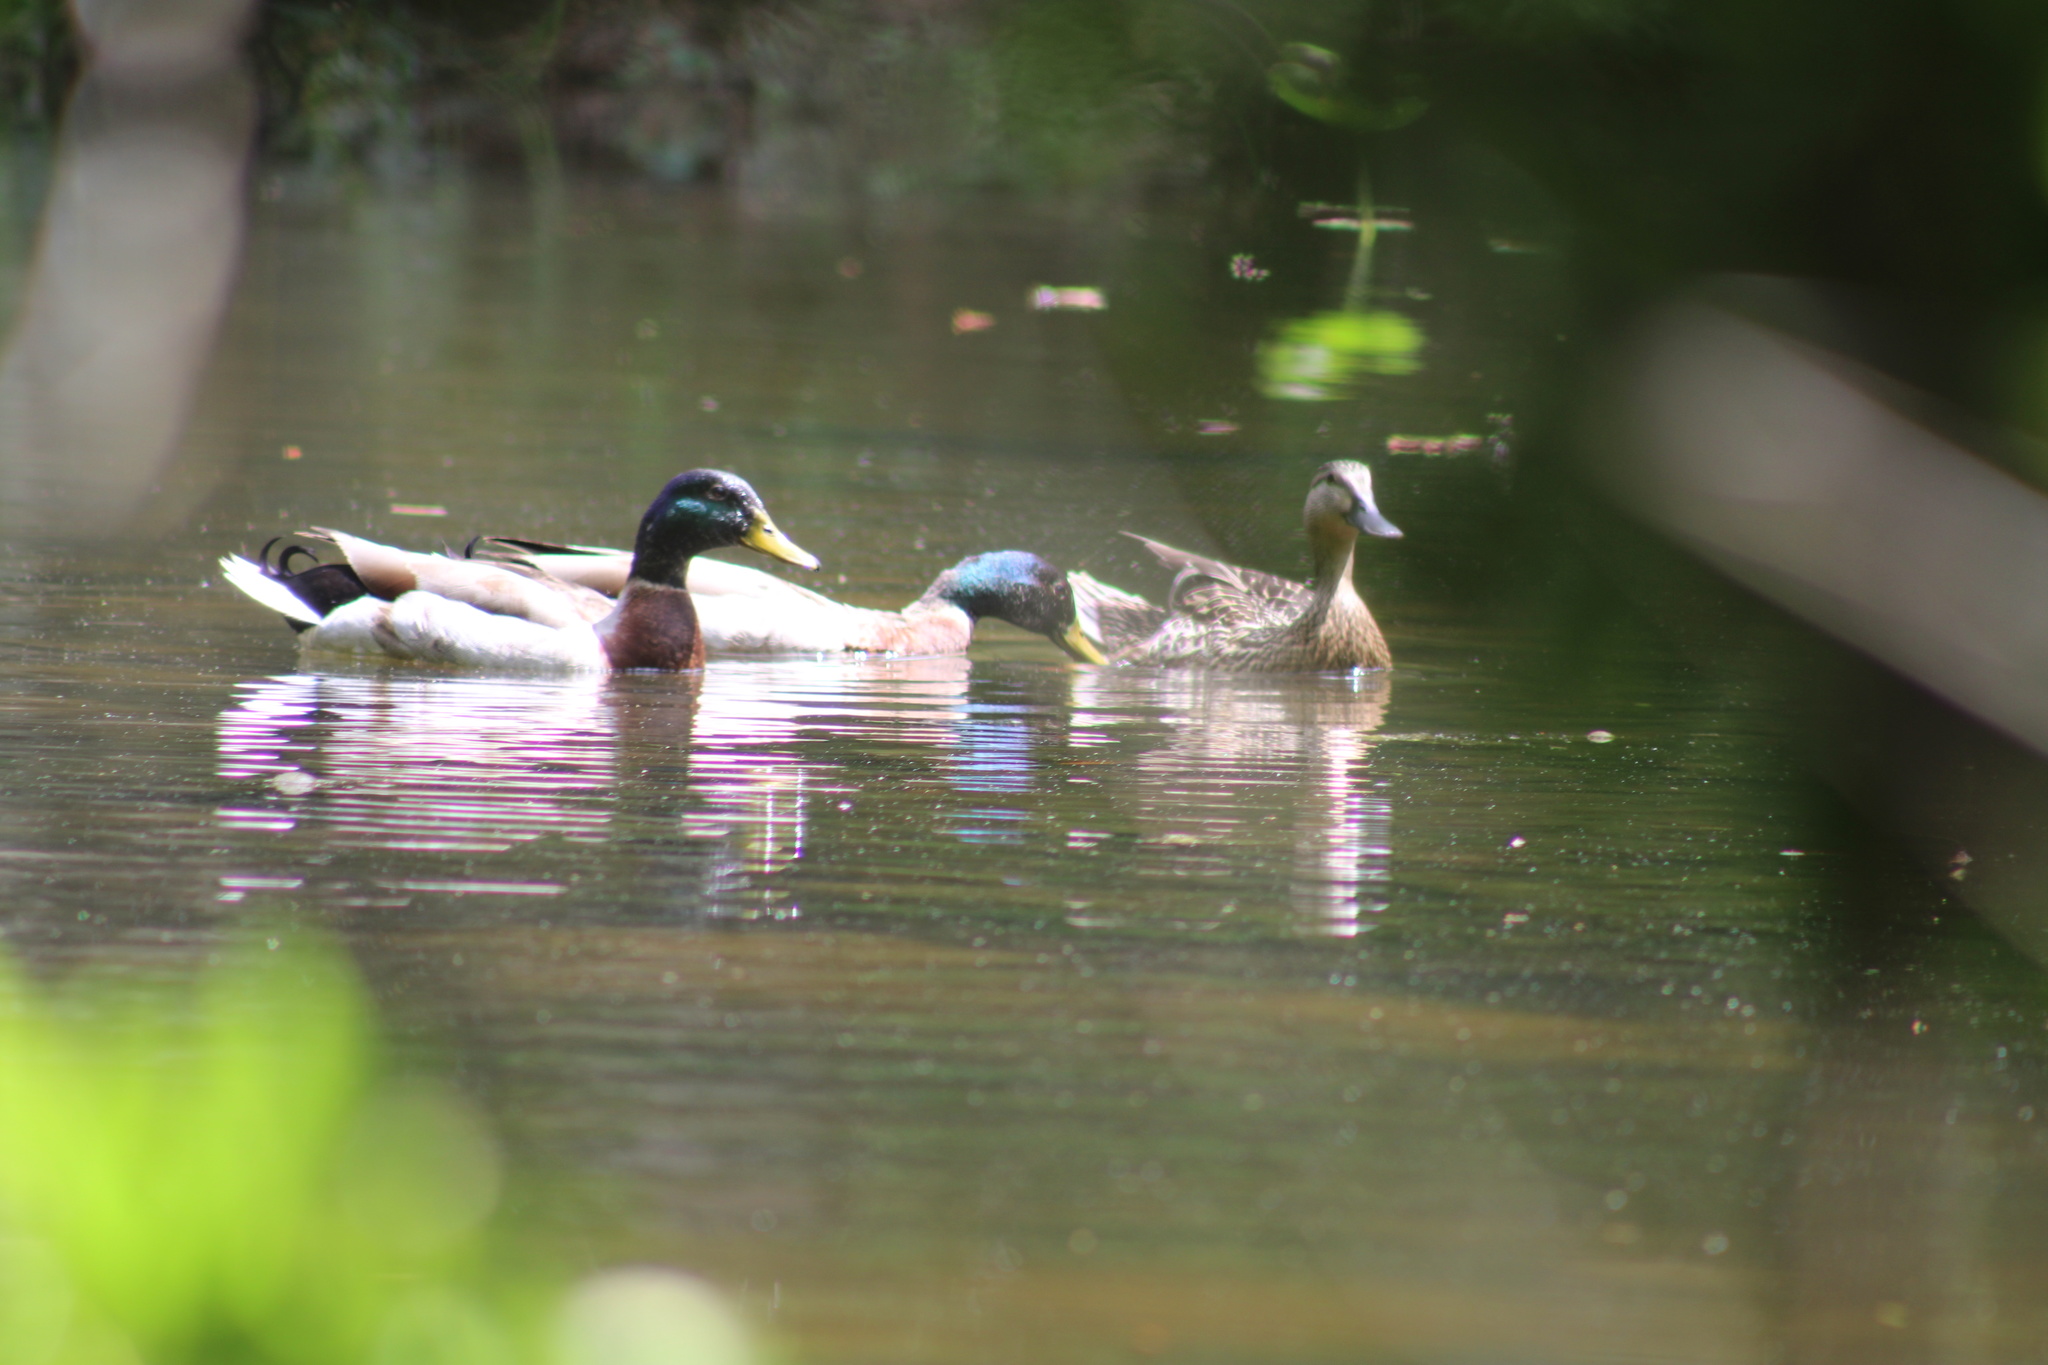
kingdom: Animalia
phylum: Chordata
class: Aves
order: Anseriformes
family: Anatidae
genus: Anas
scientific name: Anas platyrhynchos
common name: Mallard
